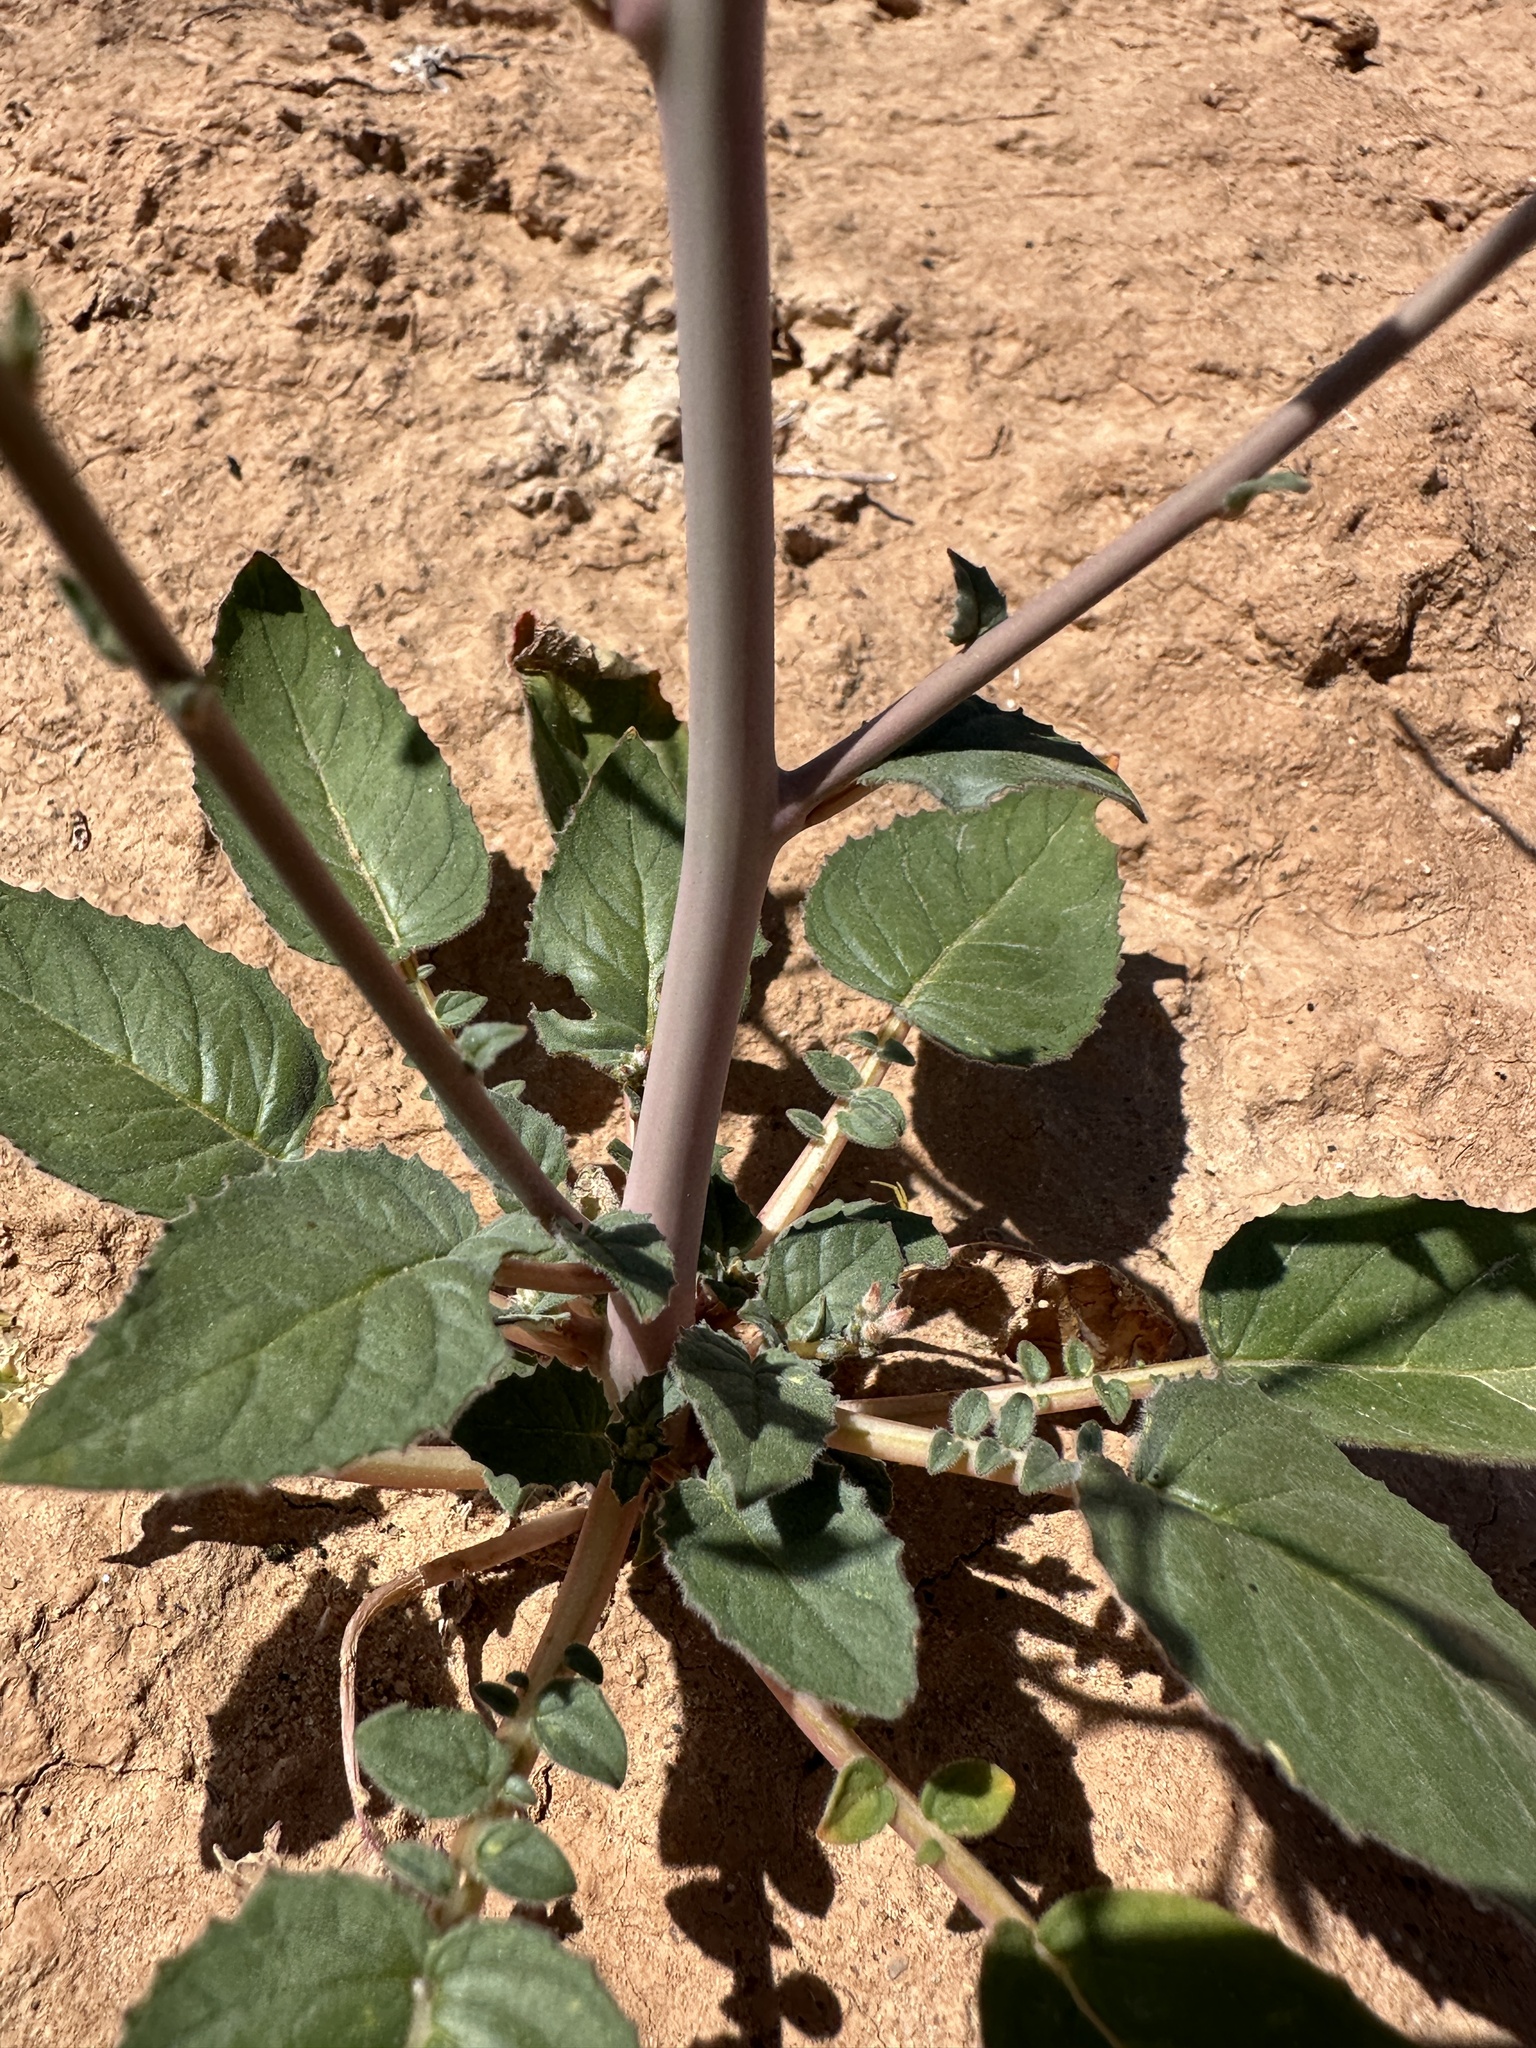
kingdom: Plantae
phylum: Tracheophyta
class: Magnoliopsida
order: Myrtales
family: Onagraceae
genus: Chylismia
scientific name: Chylismia brevipes
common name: Yellow cups
